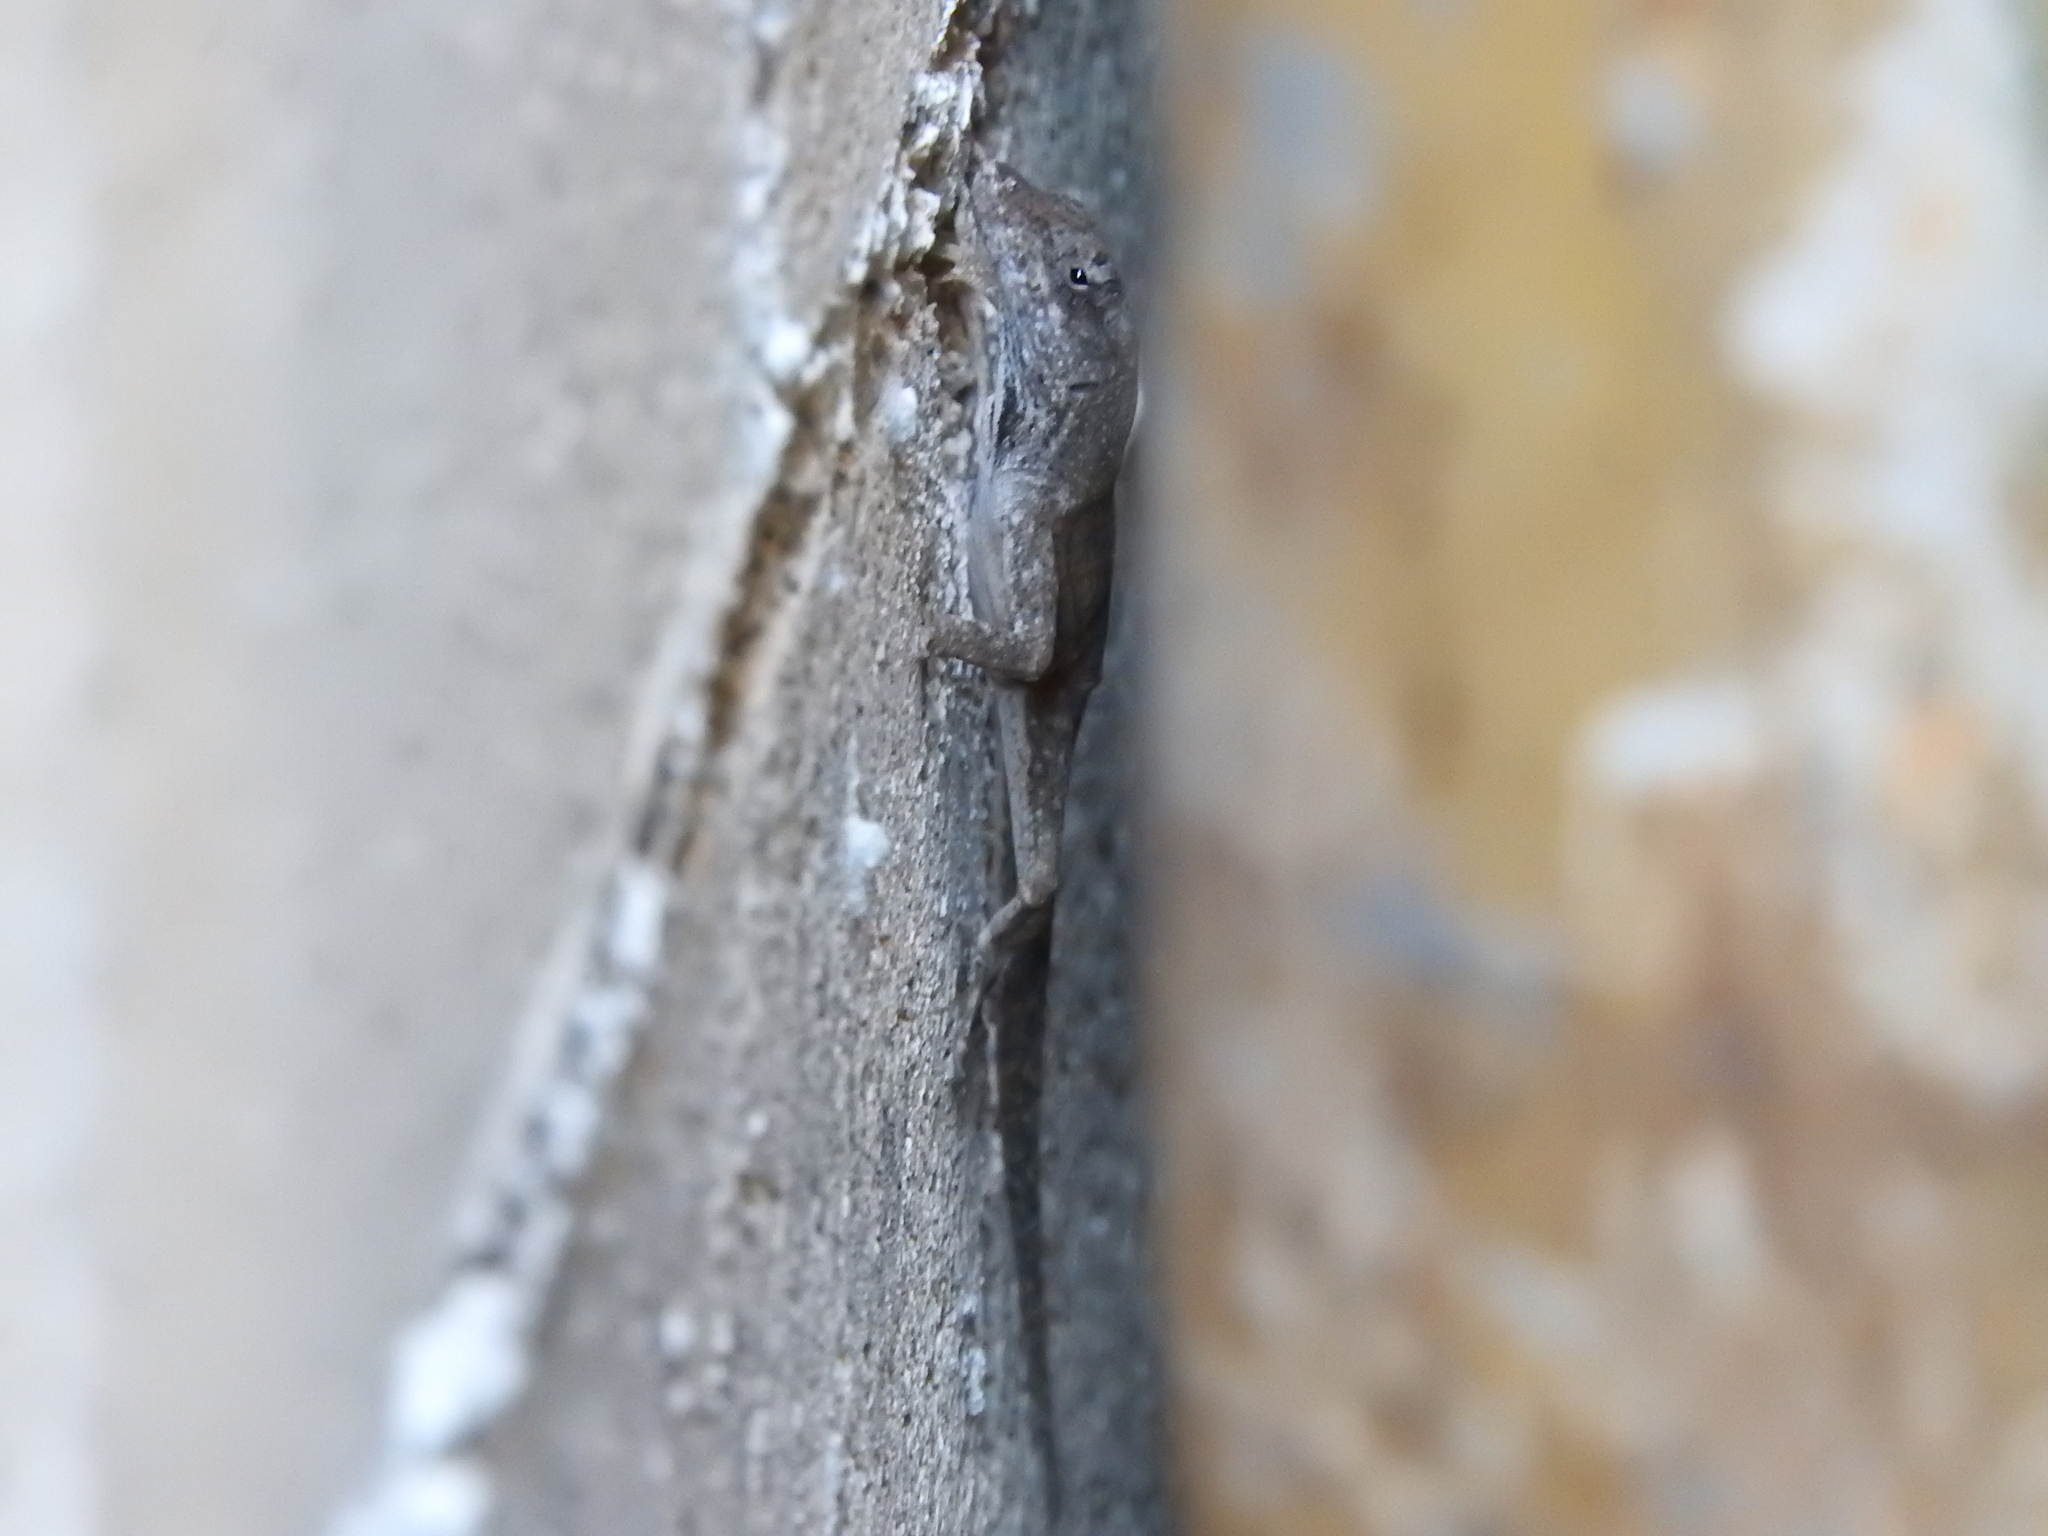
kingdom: Animalia
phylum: Chordata
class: Squamata
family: Dactyloidae
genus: Anolis
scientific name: Anolis sagrei
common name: Brown anole
